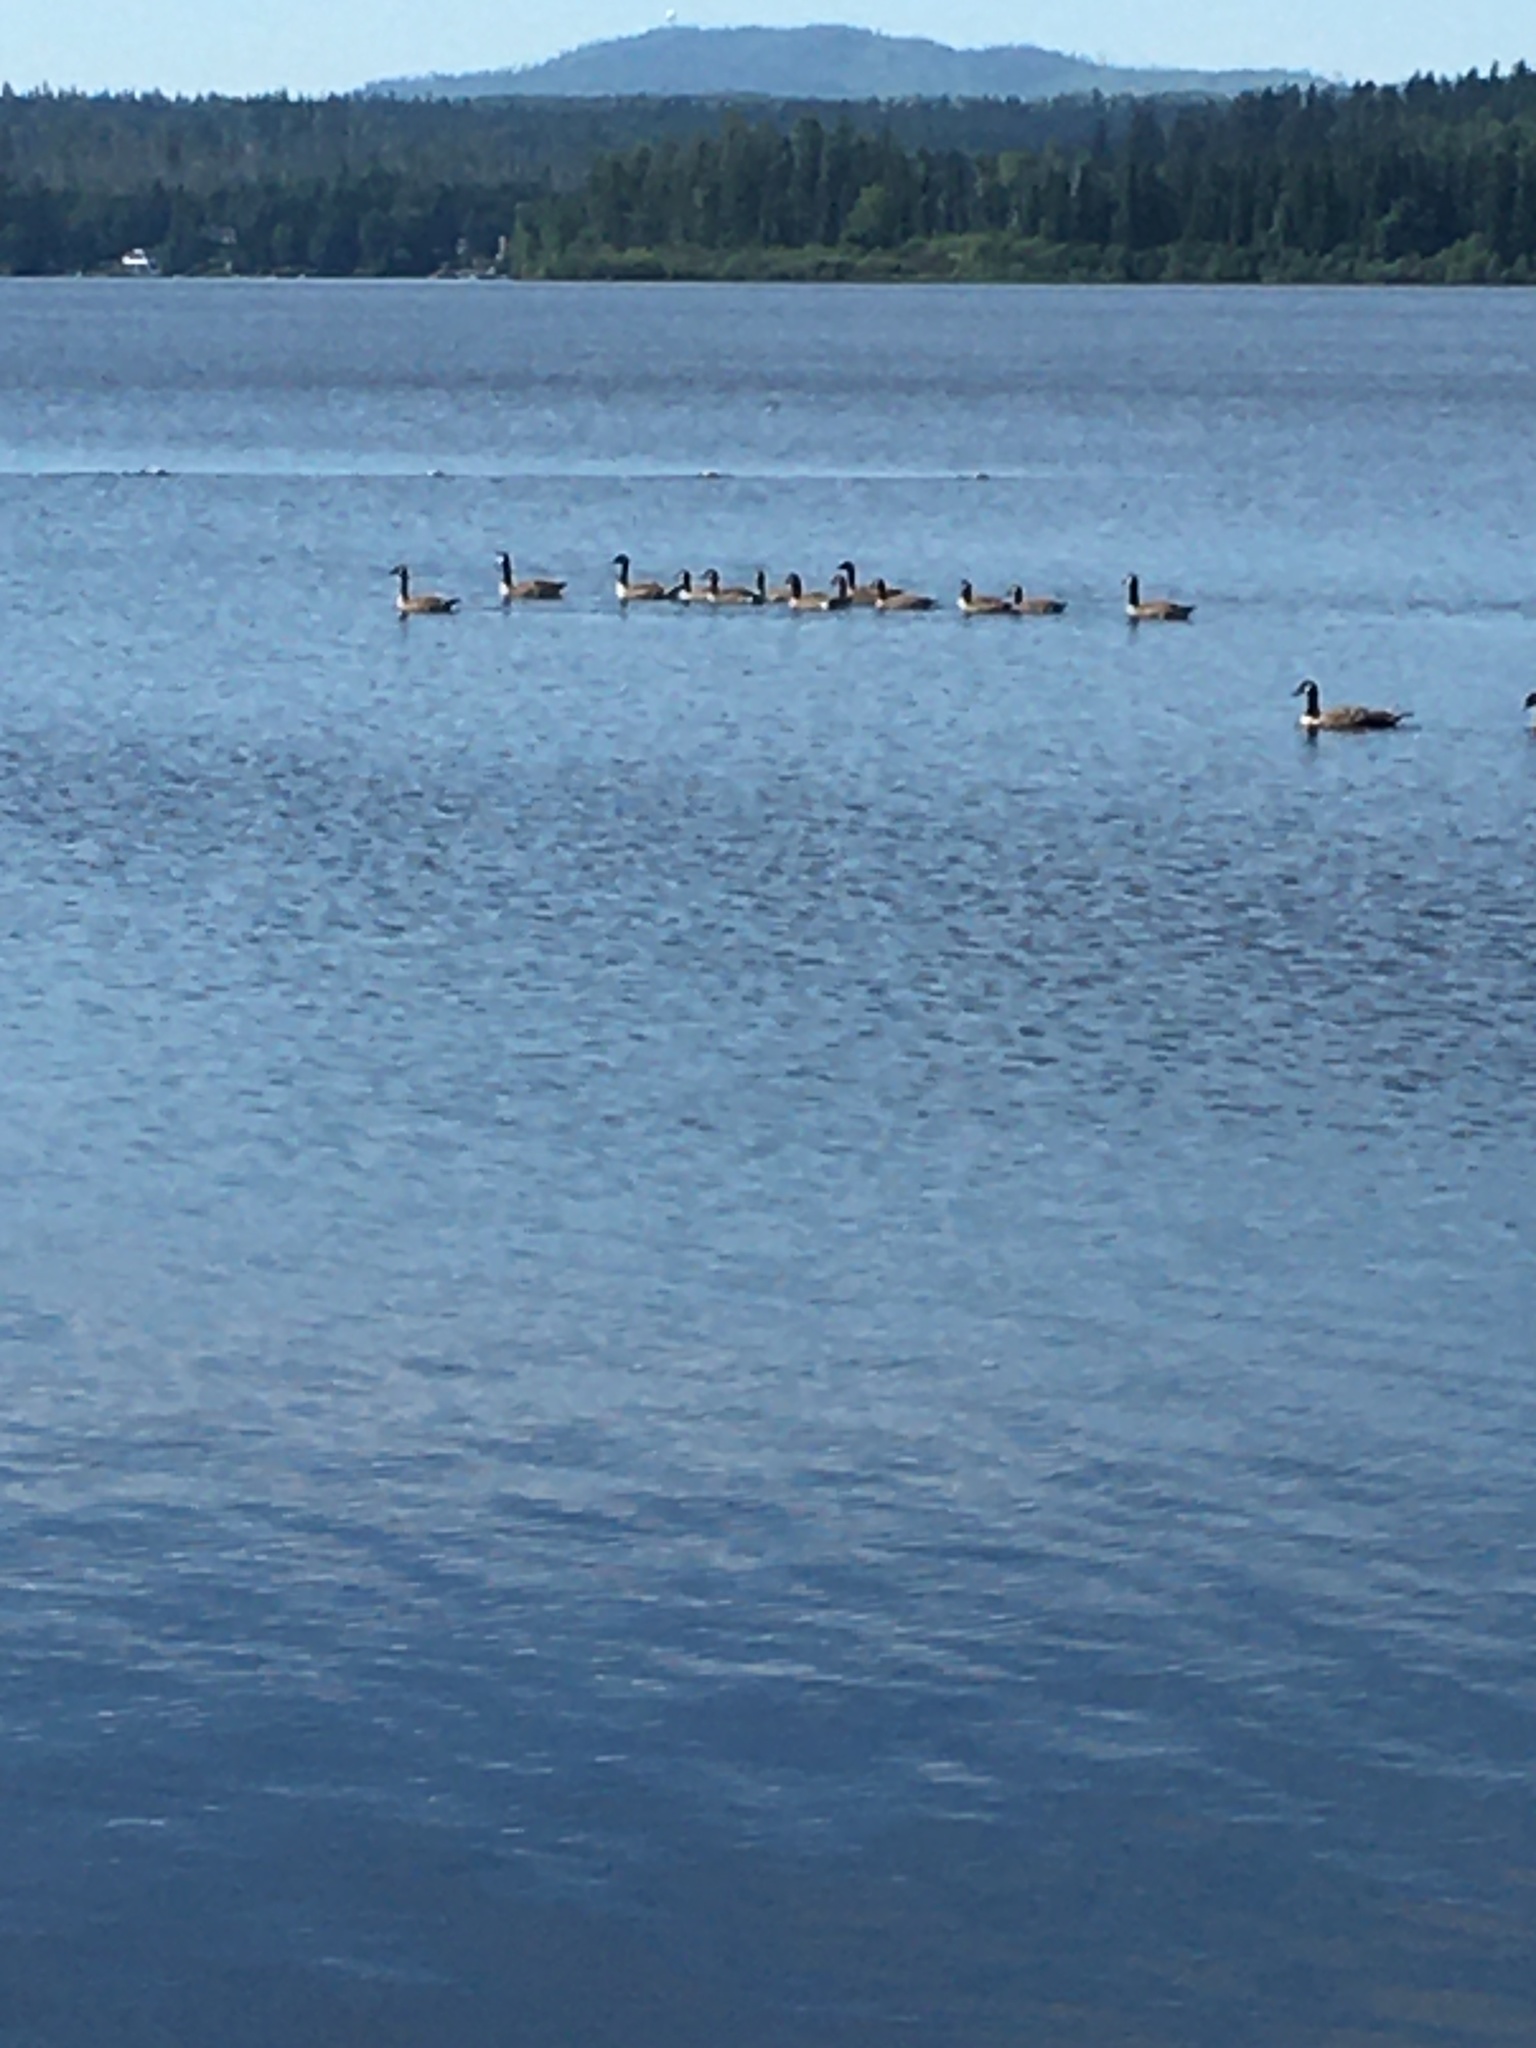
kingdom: Animalia
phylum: Chordata
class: Aves
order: Anseriformes
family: Anatidae
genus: Branta
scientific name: Branta canadensis
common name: Canada goose
